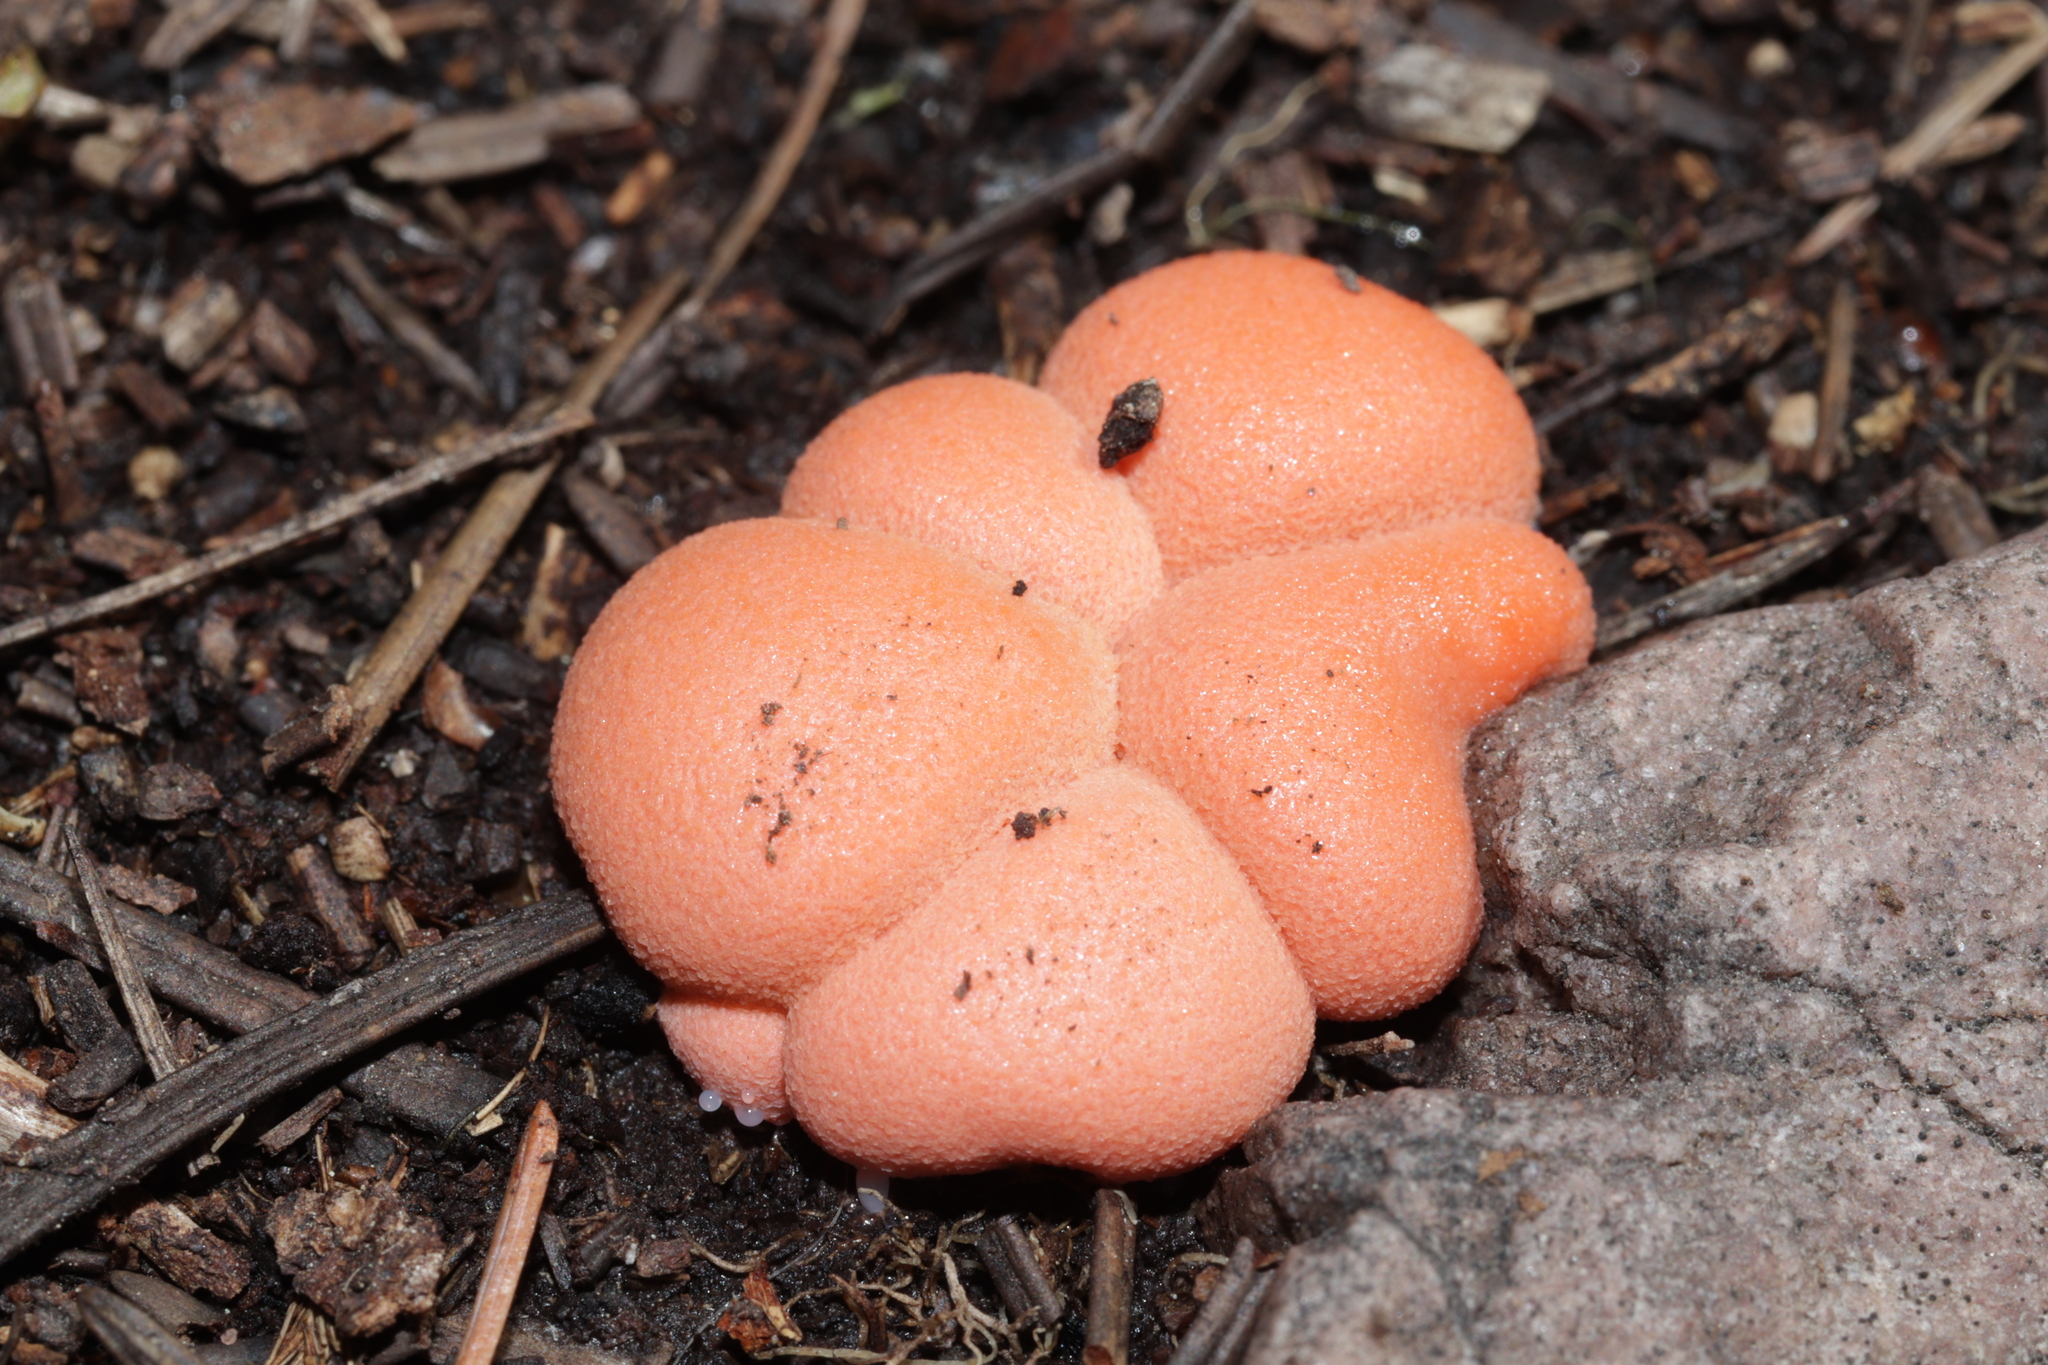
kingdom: Protozoa
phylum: Mycetozoa
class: Myxomycetes
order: Cribrariales
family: Tubiferaceae
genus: Lycogala
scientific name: Lycogala epidendrum
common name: Wolf's milk
